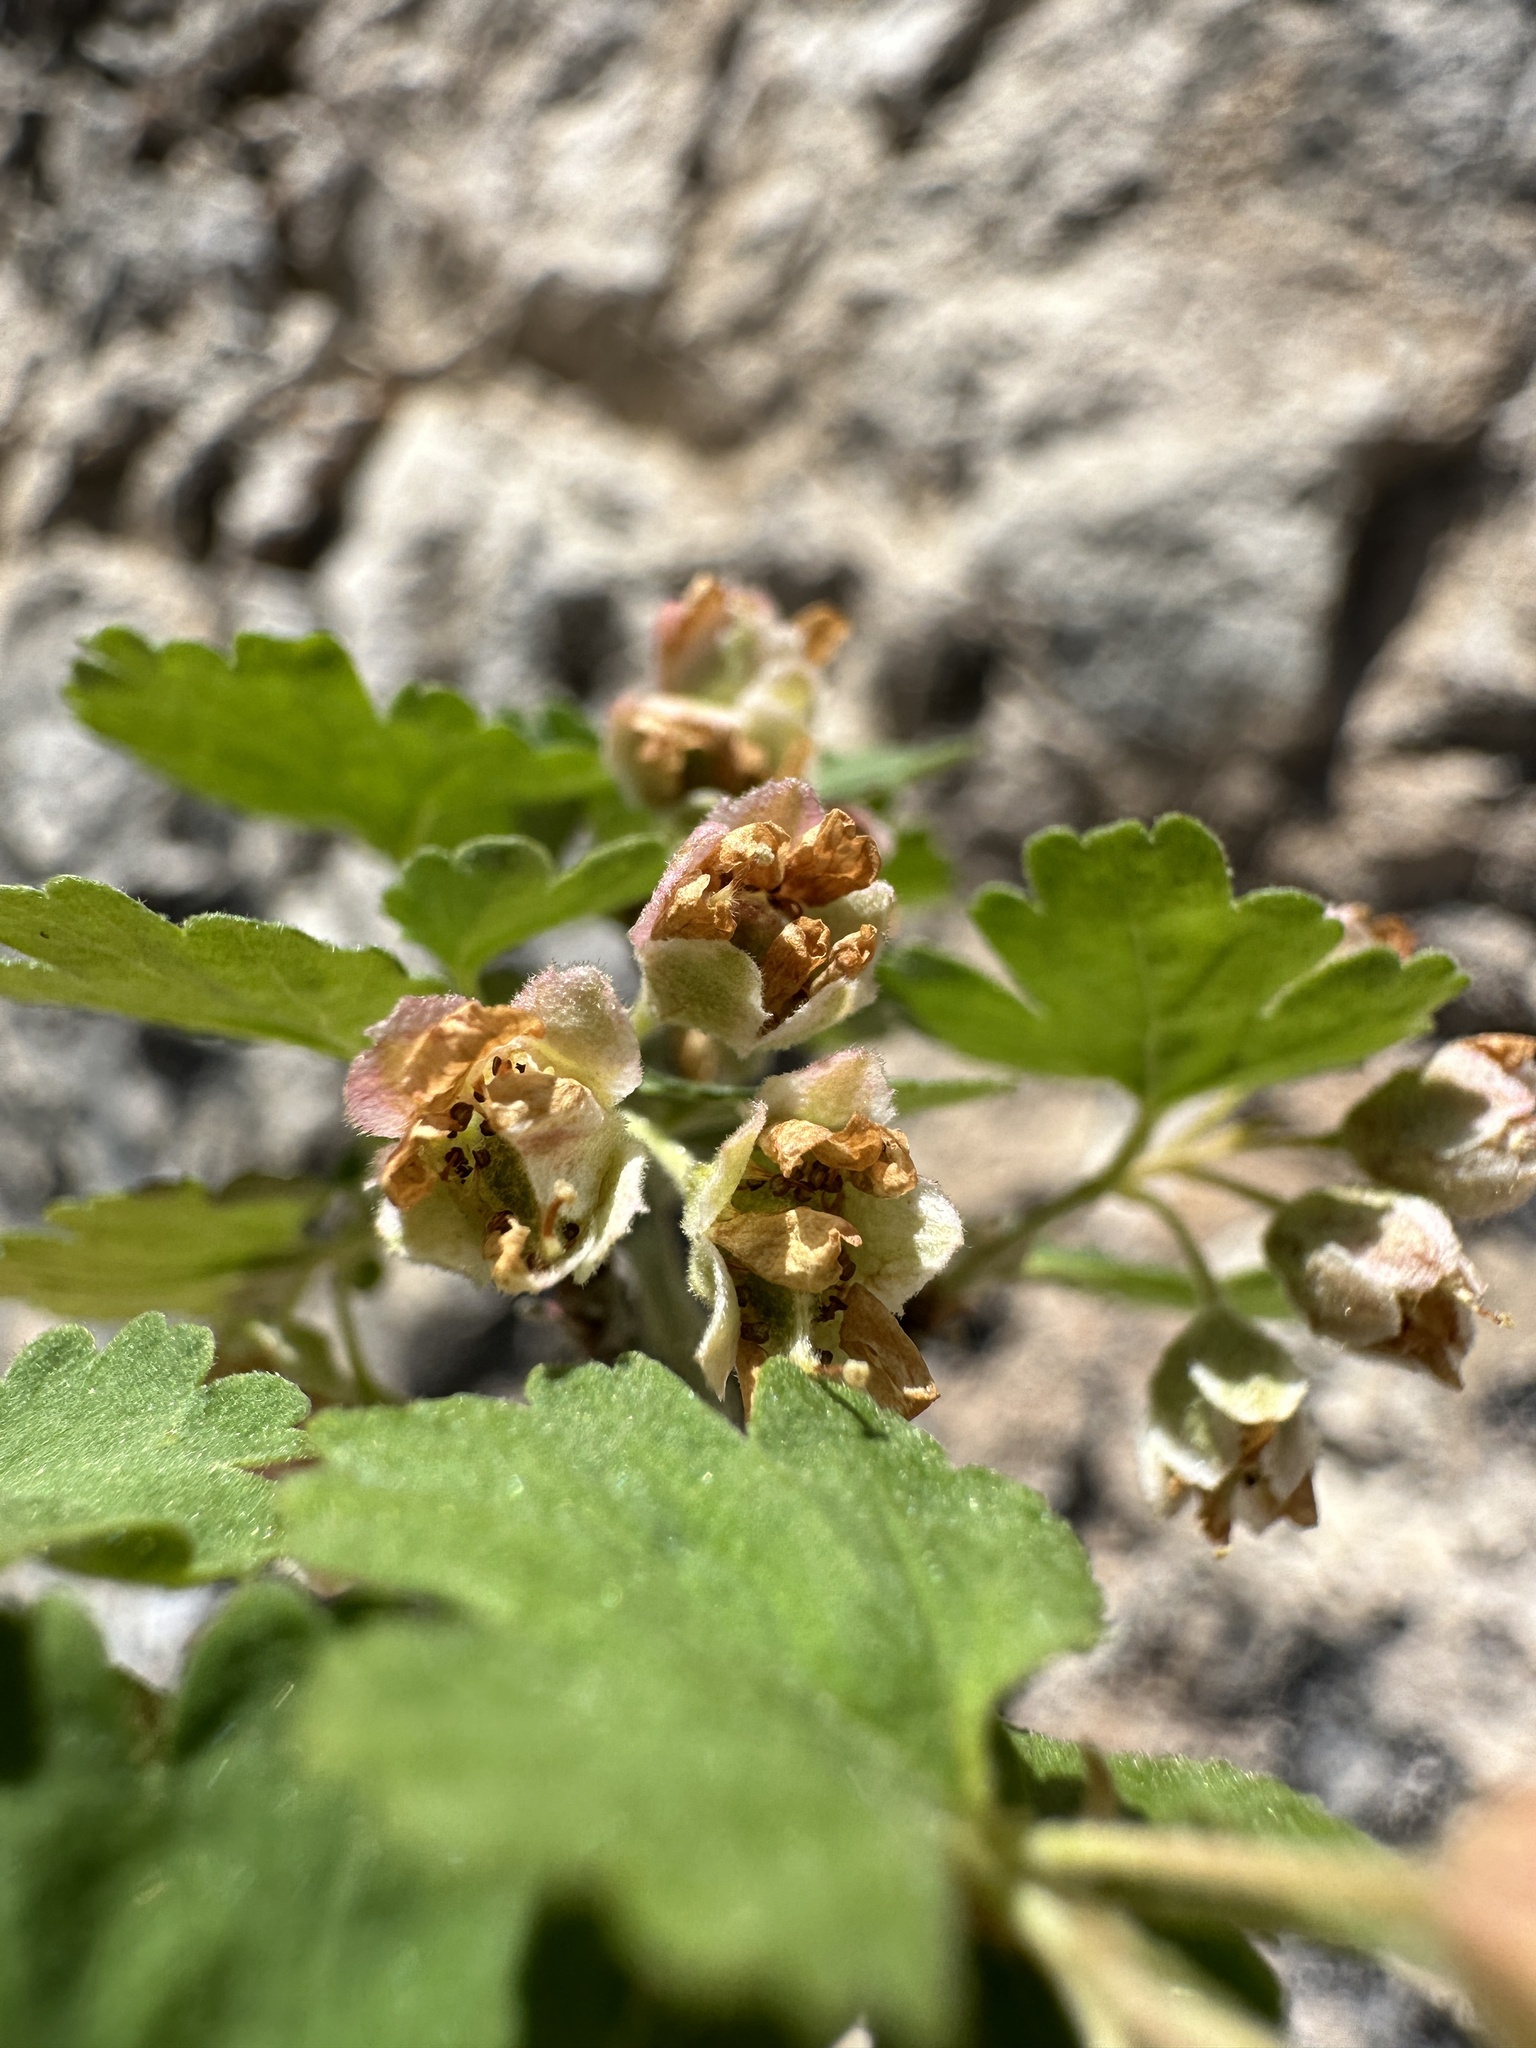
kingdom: Plantae
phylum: Tracheophyta
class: Magnoliopsida
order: Rosales
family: Rosaceae
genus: Physocarpus
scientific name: Physocarpus alternans
